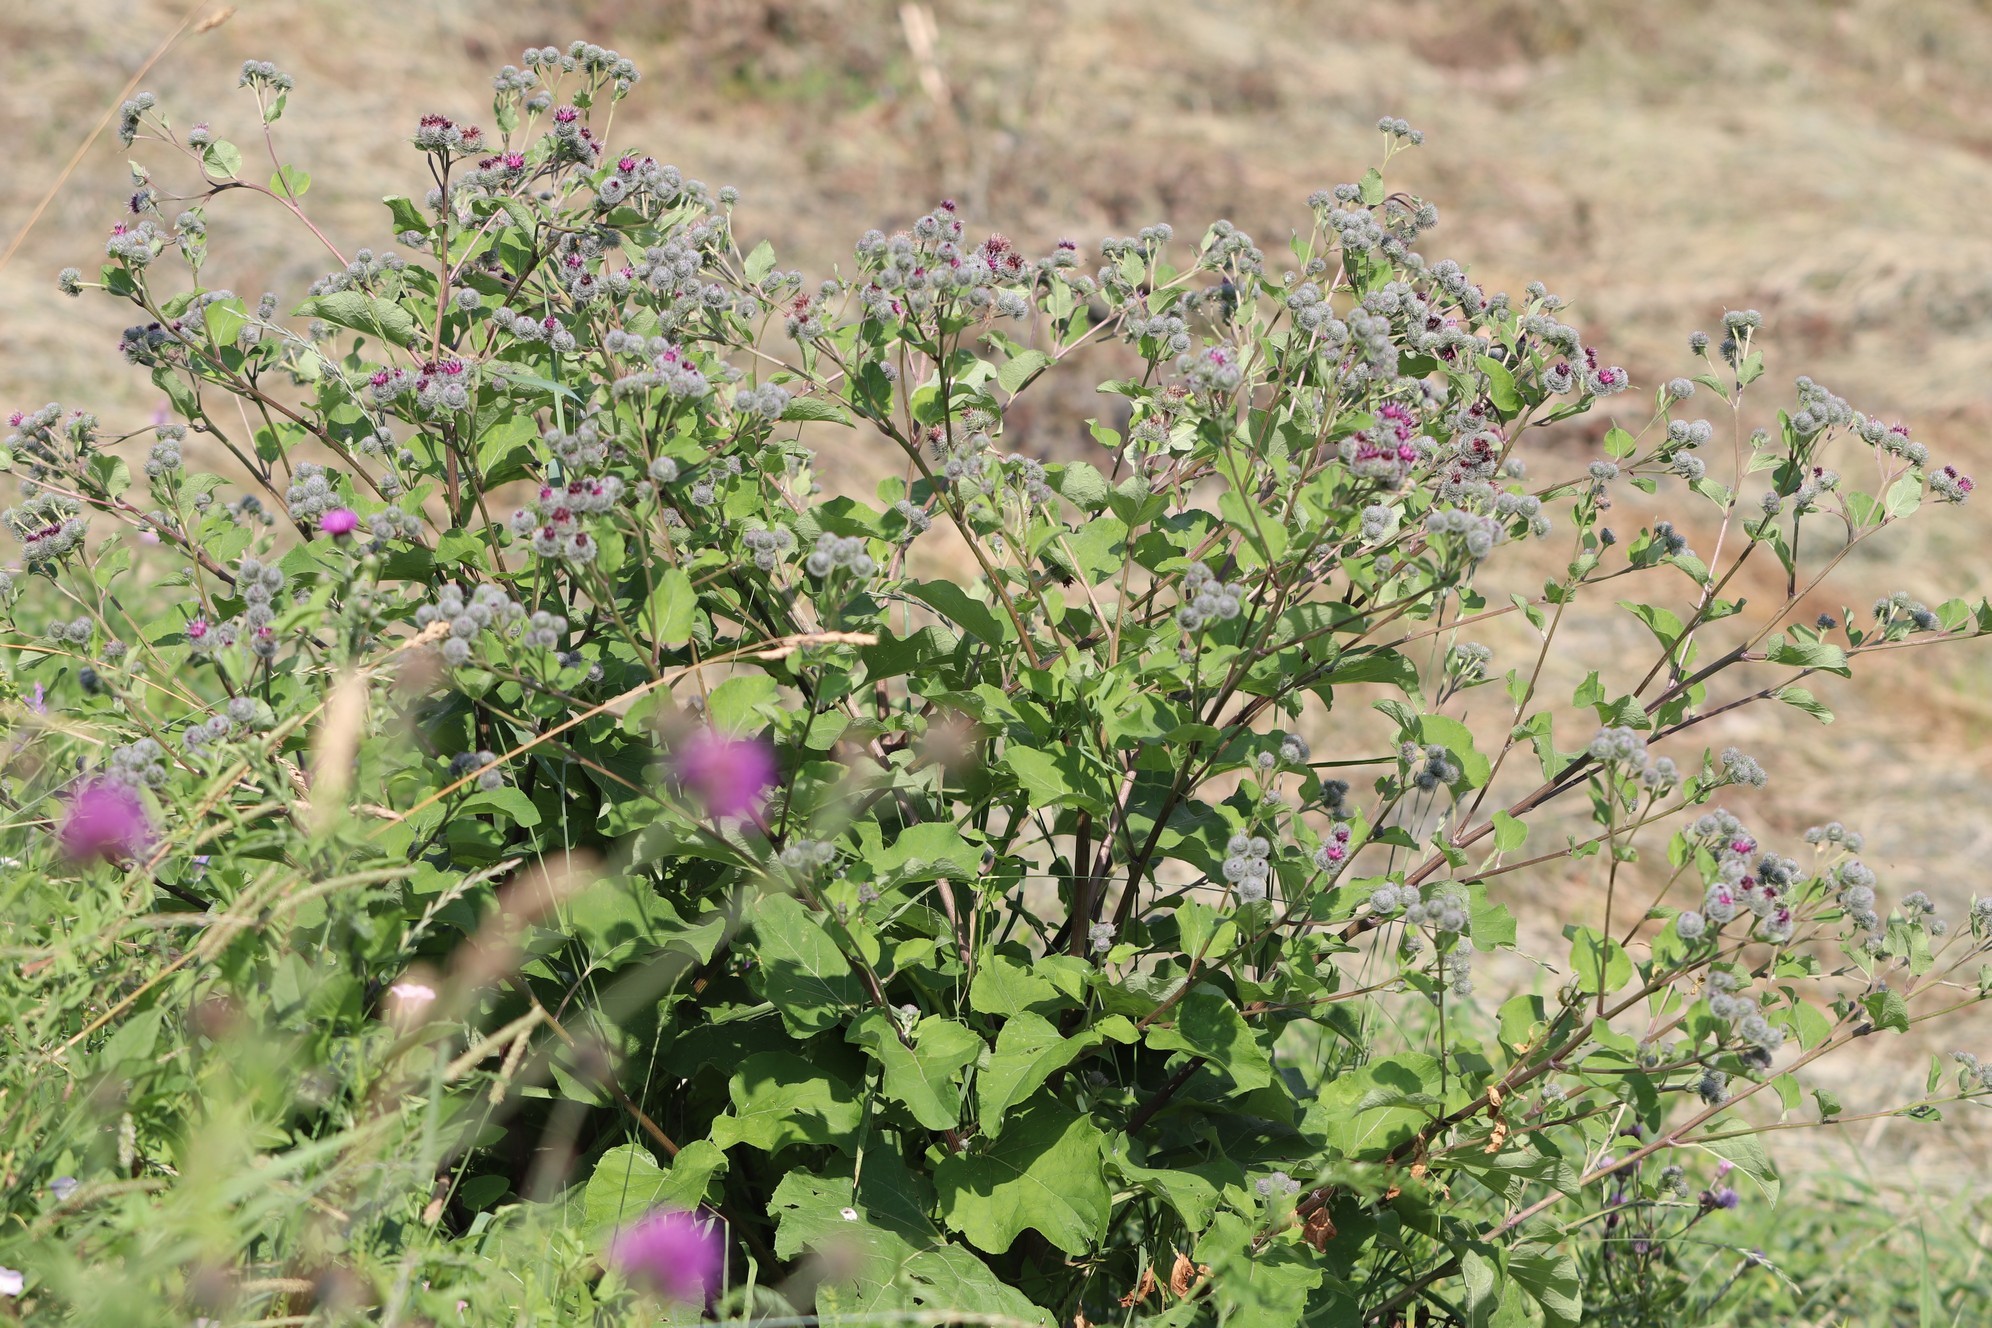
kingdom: Plantae
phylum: Tracheophyta
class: Magnoliopsida
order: Asterales
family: Asteraceae
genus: Arctium
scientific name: Arctium tomentosum
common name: Woolly burdock
